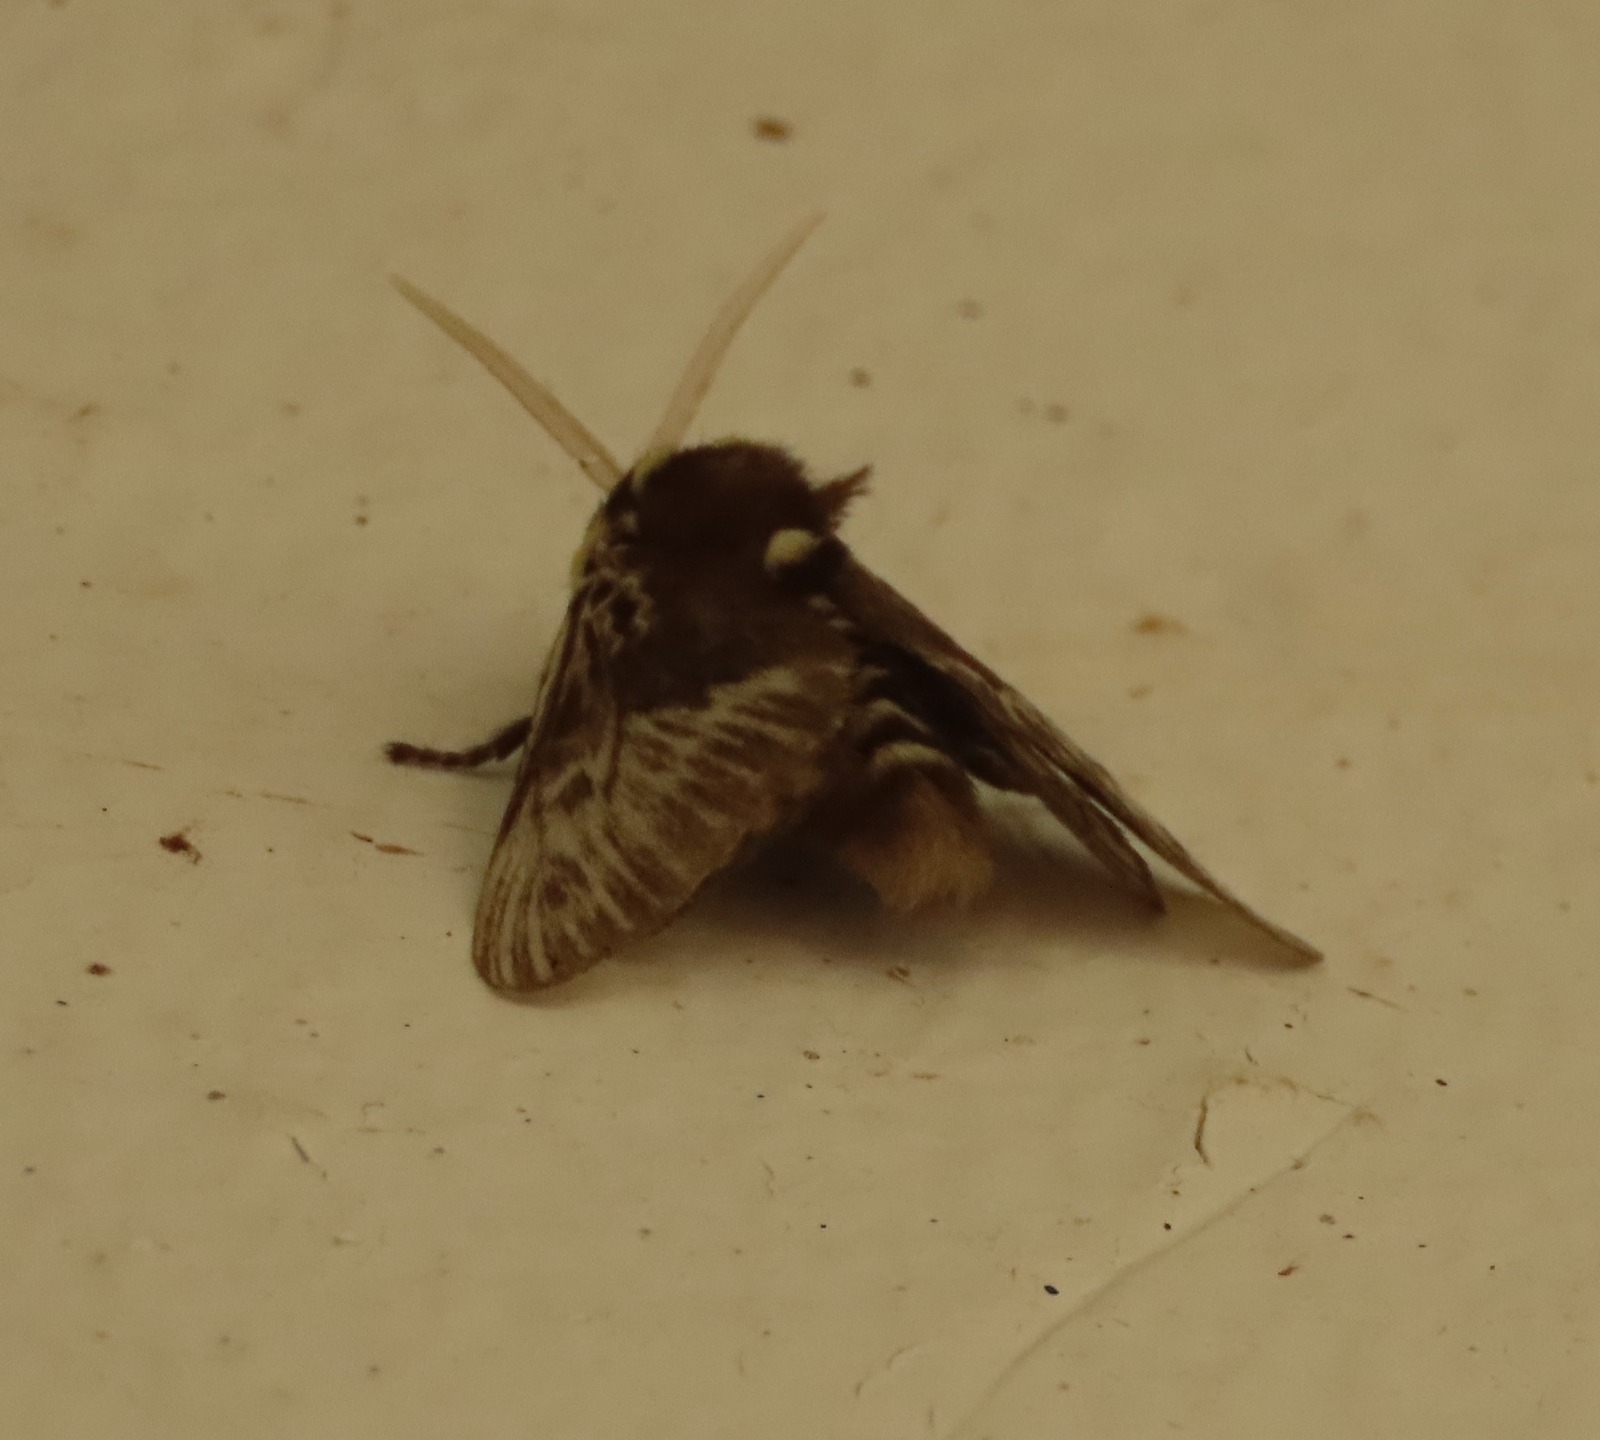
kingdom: Animalia
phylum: Arthropoda
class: Insecta
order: Lepidoptera
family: Megalopygidae
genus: Megalopyge
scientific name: Megalopyge albicollis
